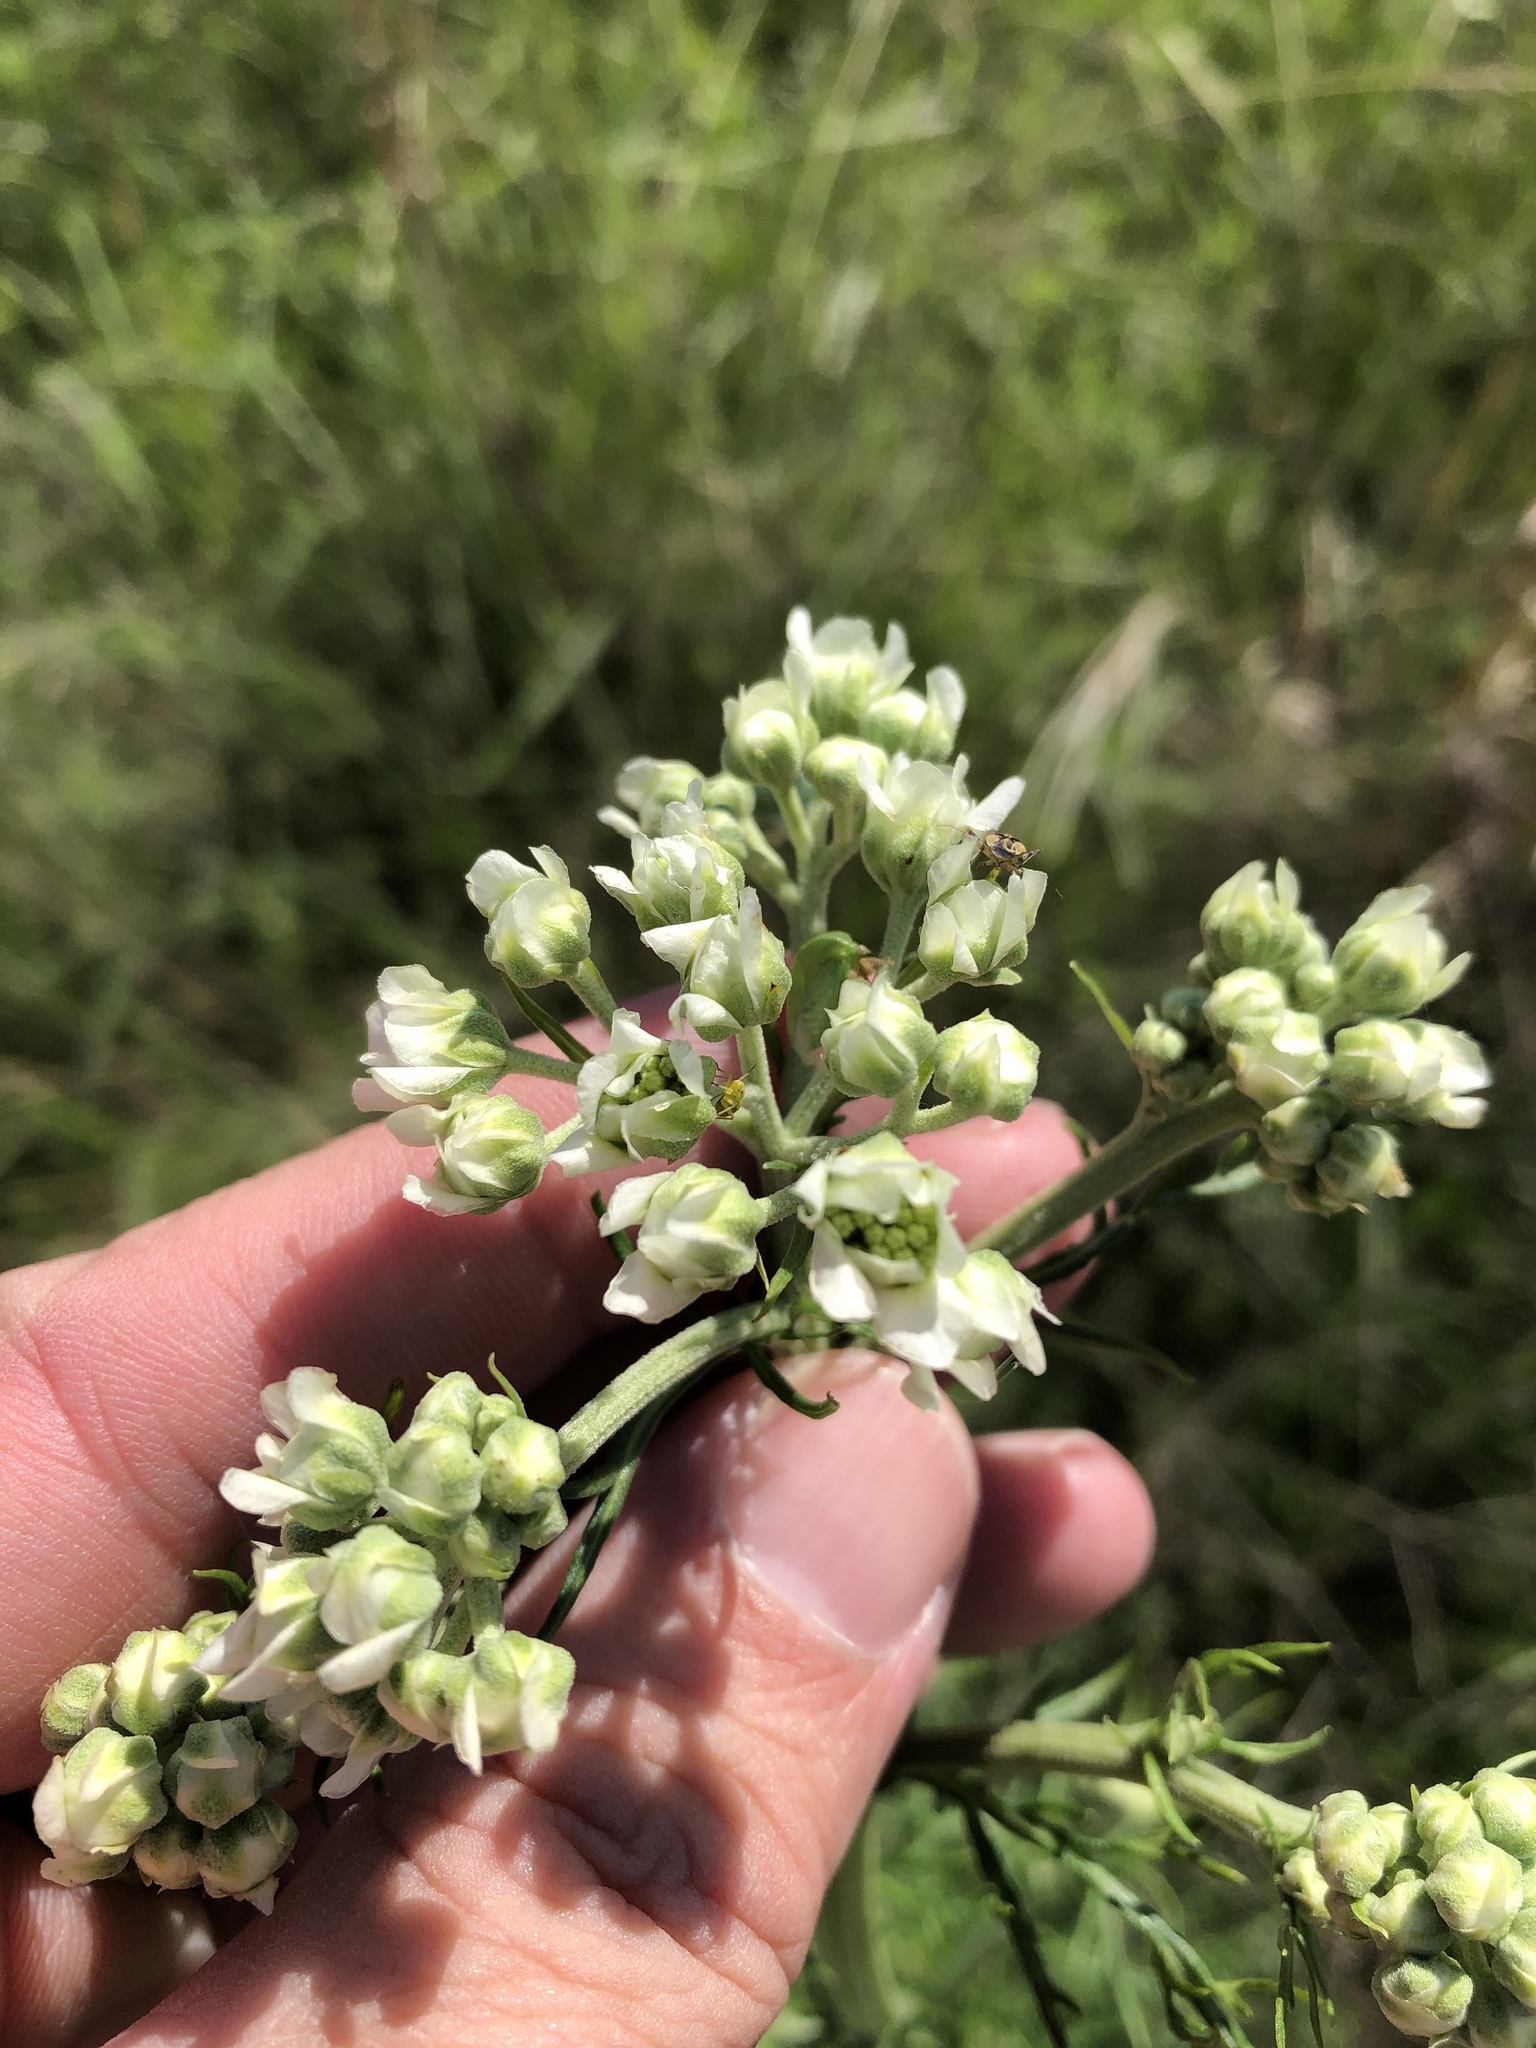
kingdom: Plantae
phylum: Tracheophyta
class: Magnoliopsida
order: Asterales
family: Asteraceae
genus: Hymenopappus
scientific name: Hymenopappus scabiosaeus
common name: Carolina woollywhite
